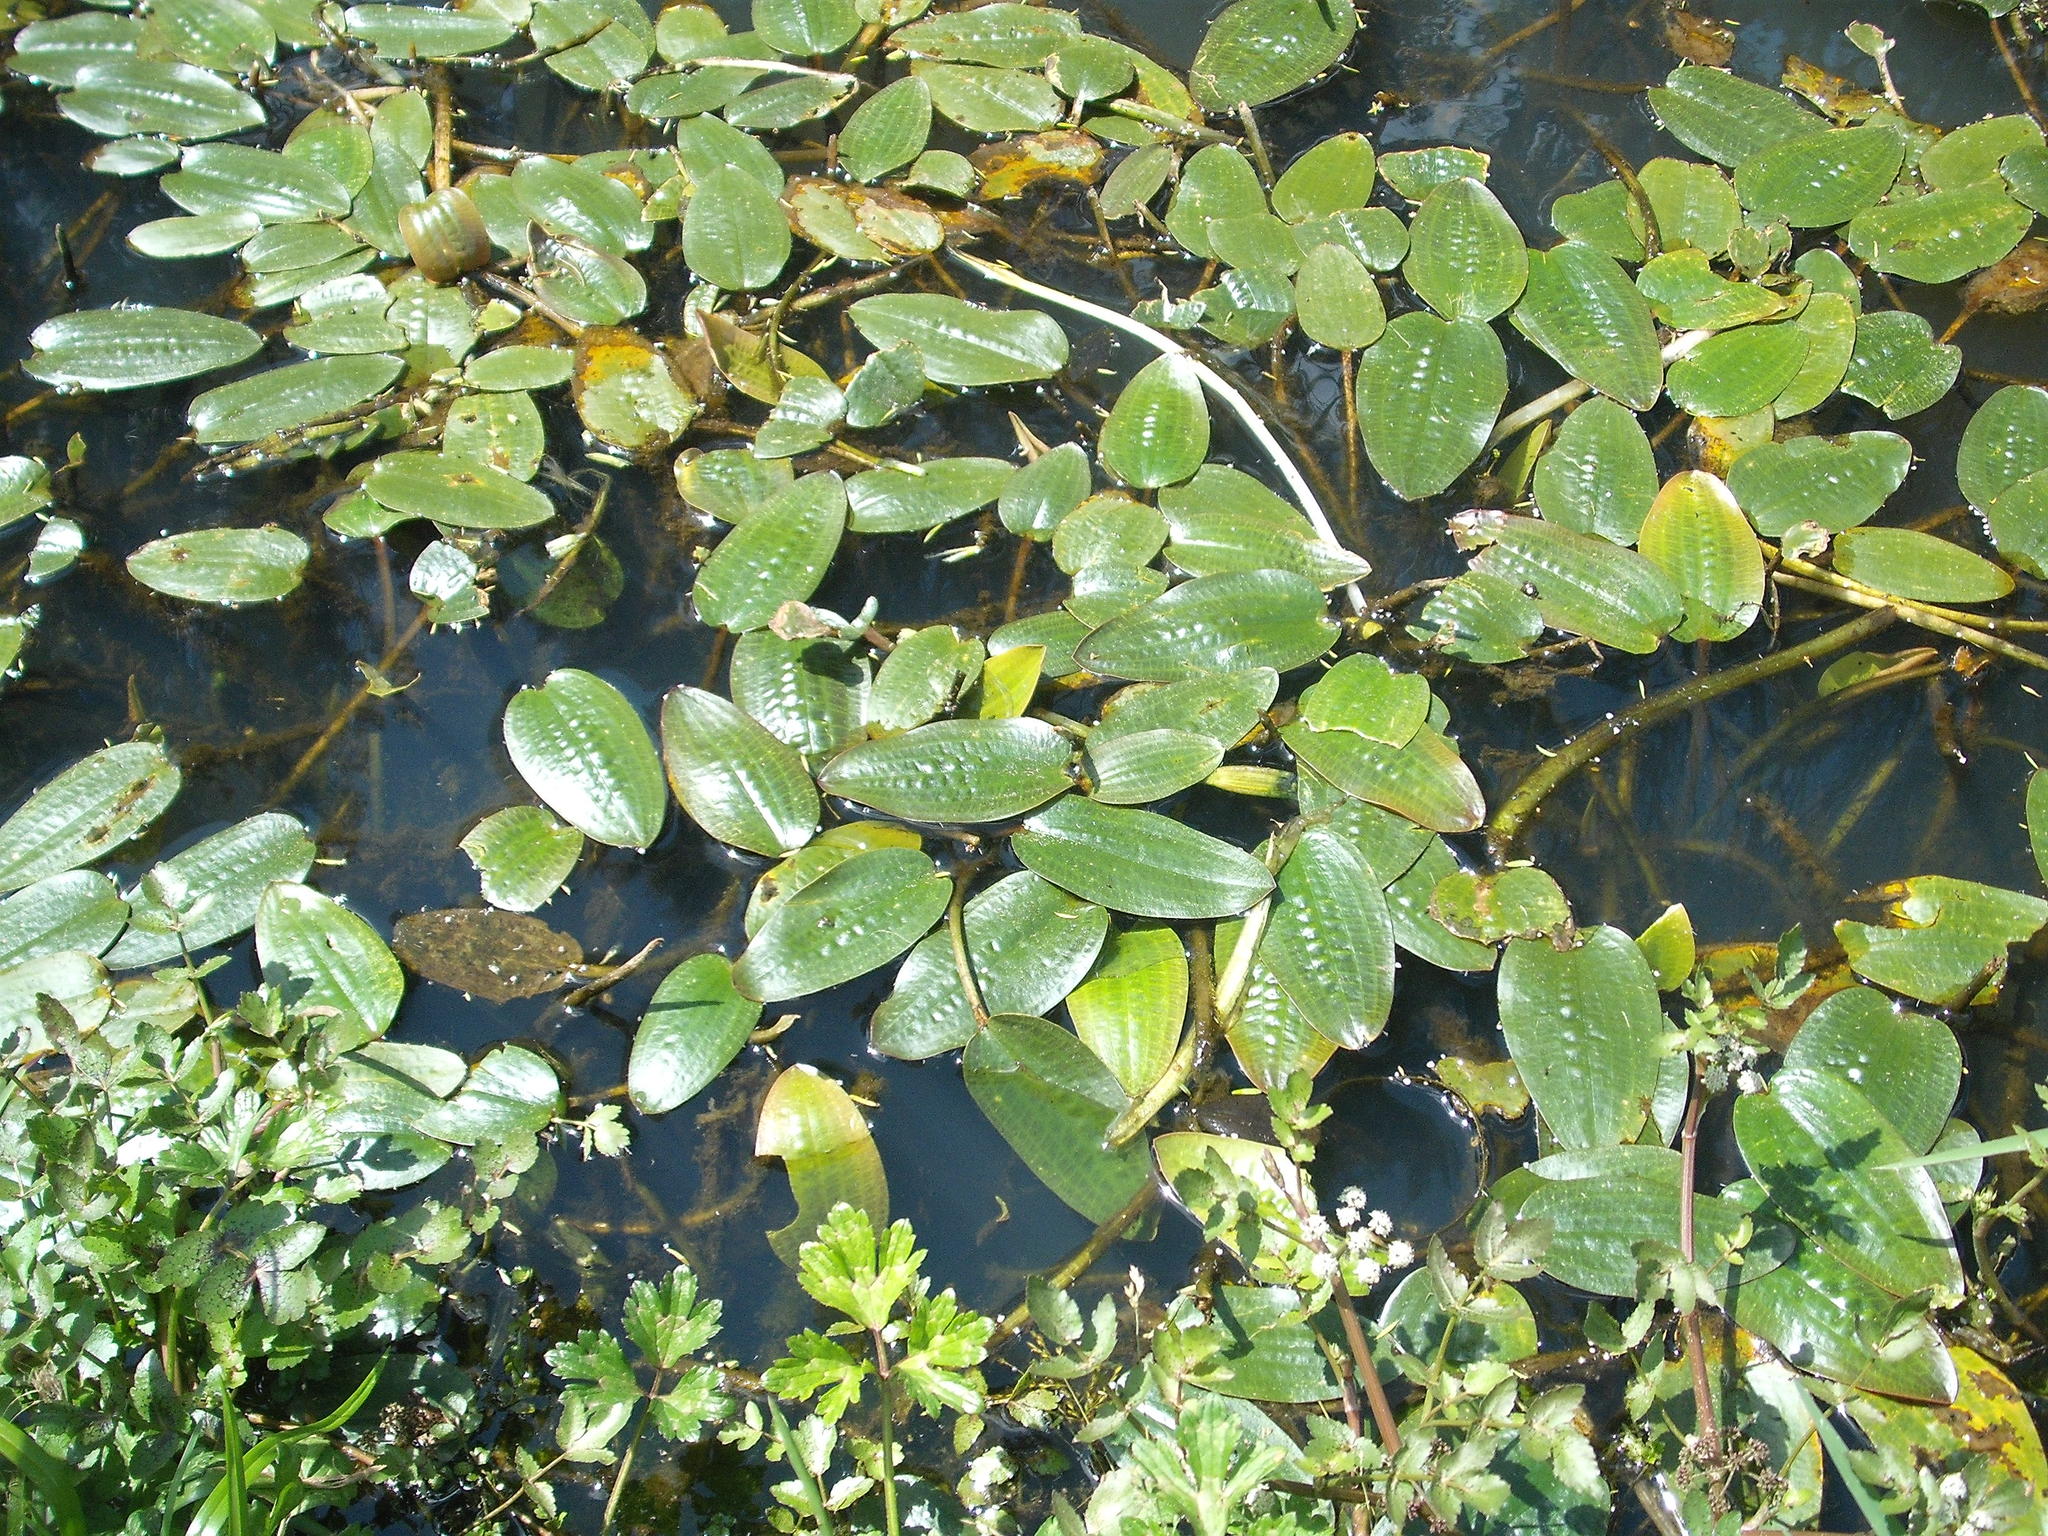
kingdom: Plantae
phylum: Tracheophyta
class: Liliopsida
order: Alismatales
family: Hydrocharitaceae
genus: Ottelia
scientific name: Ottelia ovalifolia
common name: Swamp-lily
